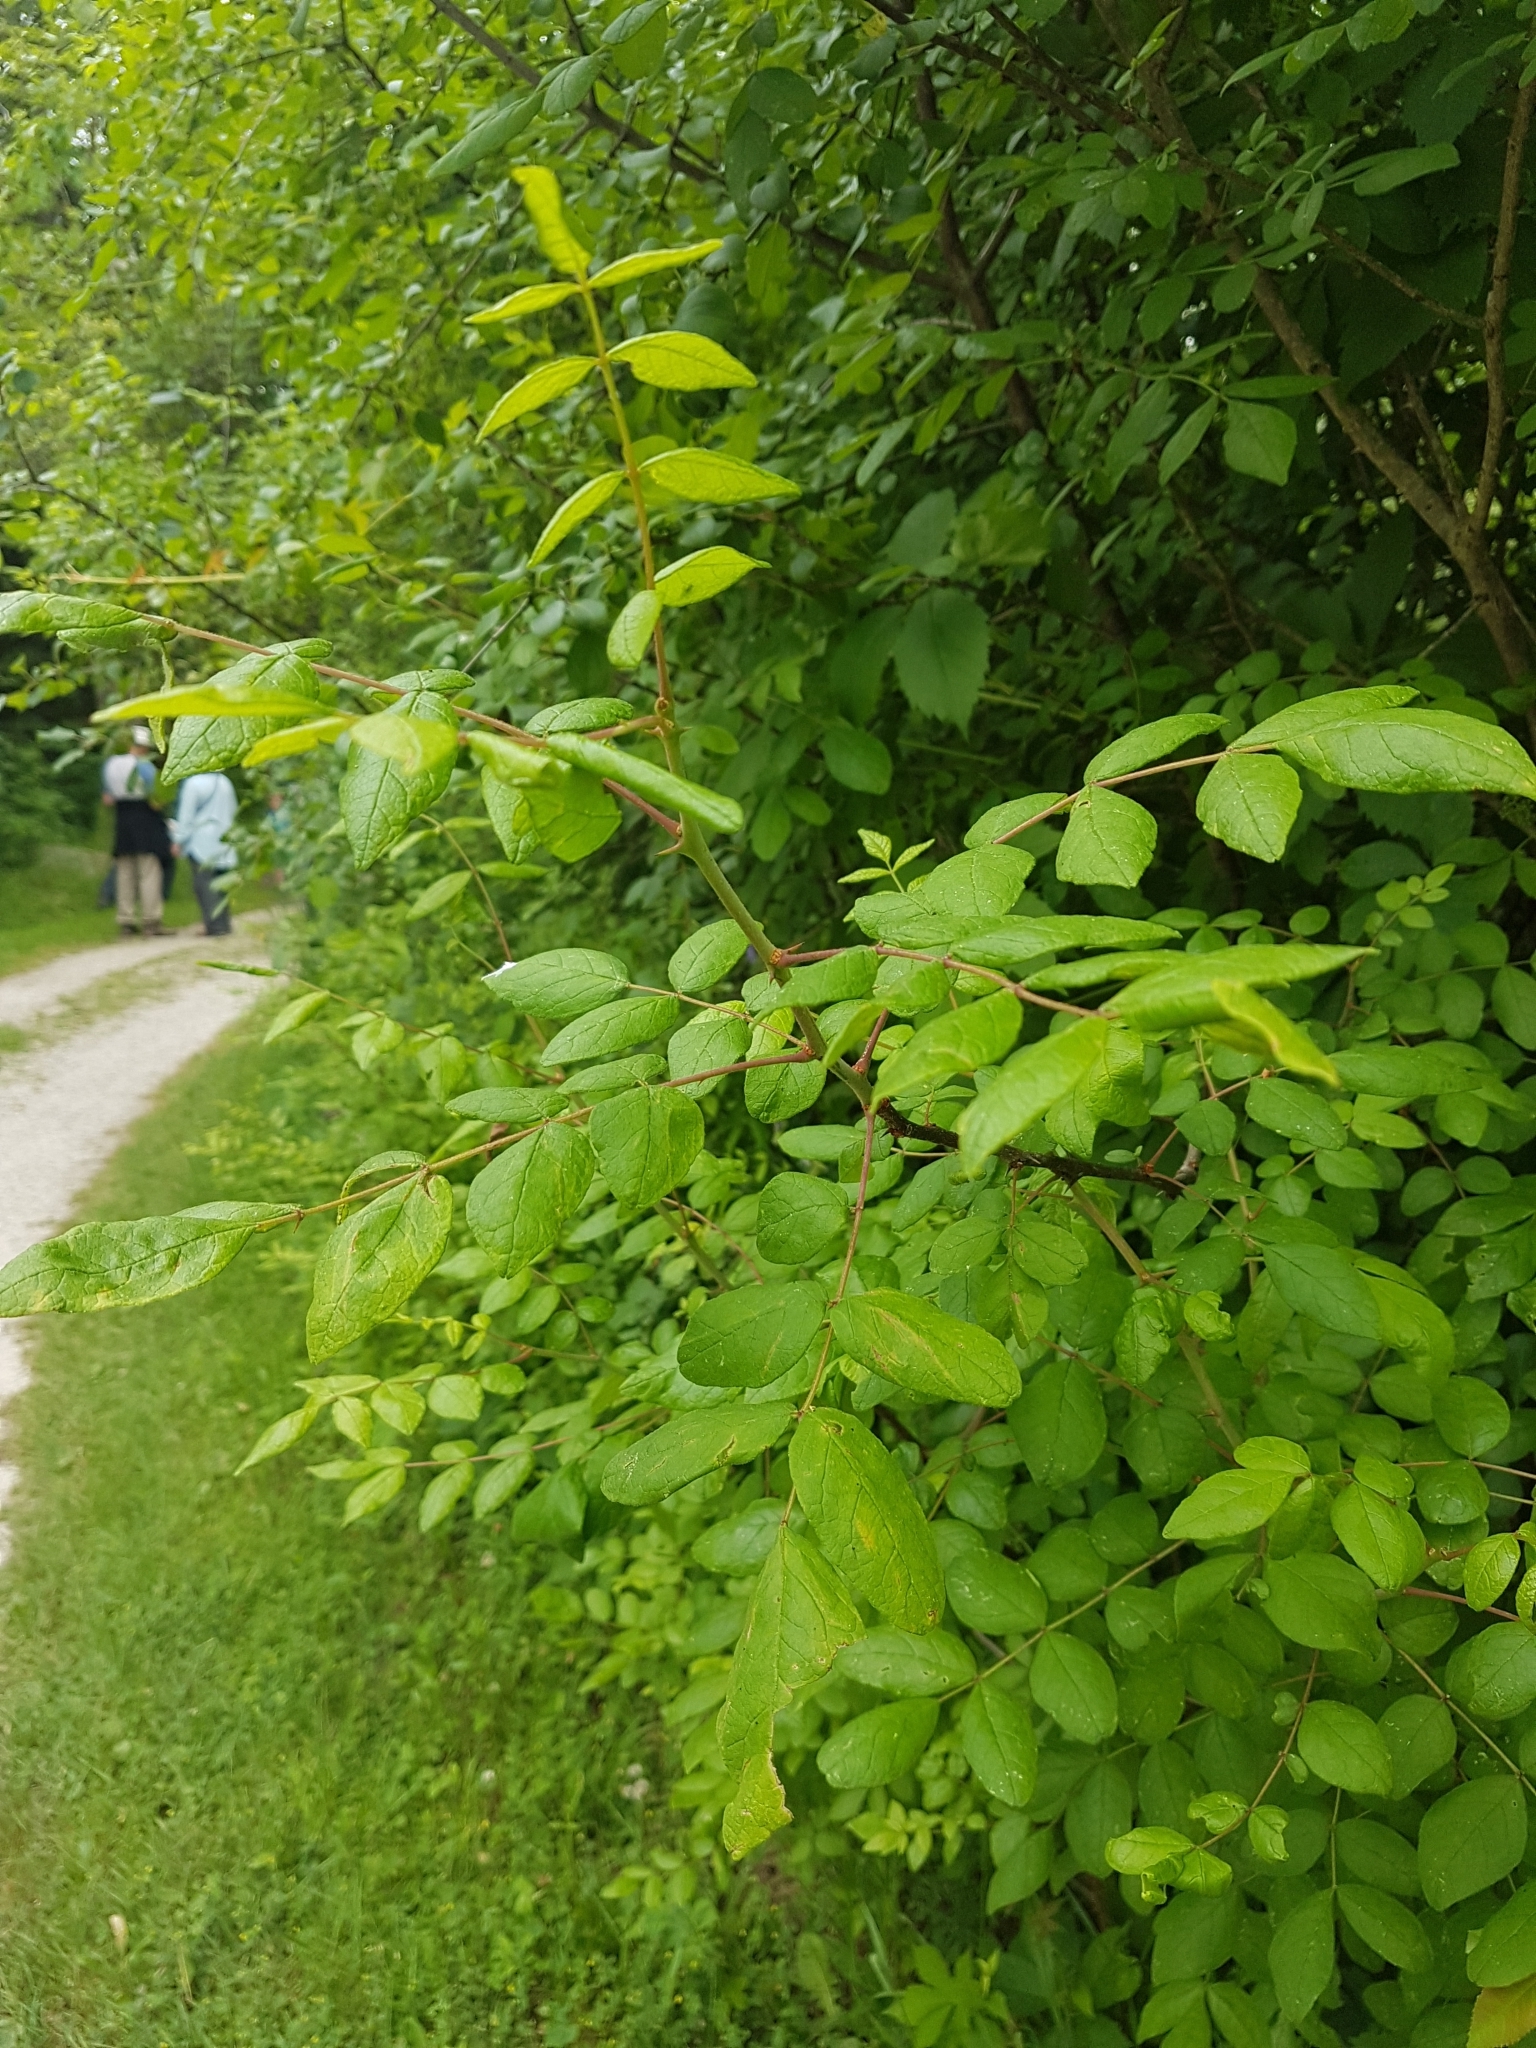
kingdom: Plantae
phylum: Tracheophyta
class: Magnoliopsida
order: Sapindales
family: Rutaceae
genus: Zanthoxylum
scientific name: Zanthoxylum americanum
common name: Northern prickly-ash
